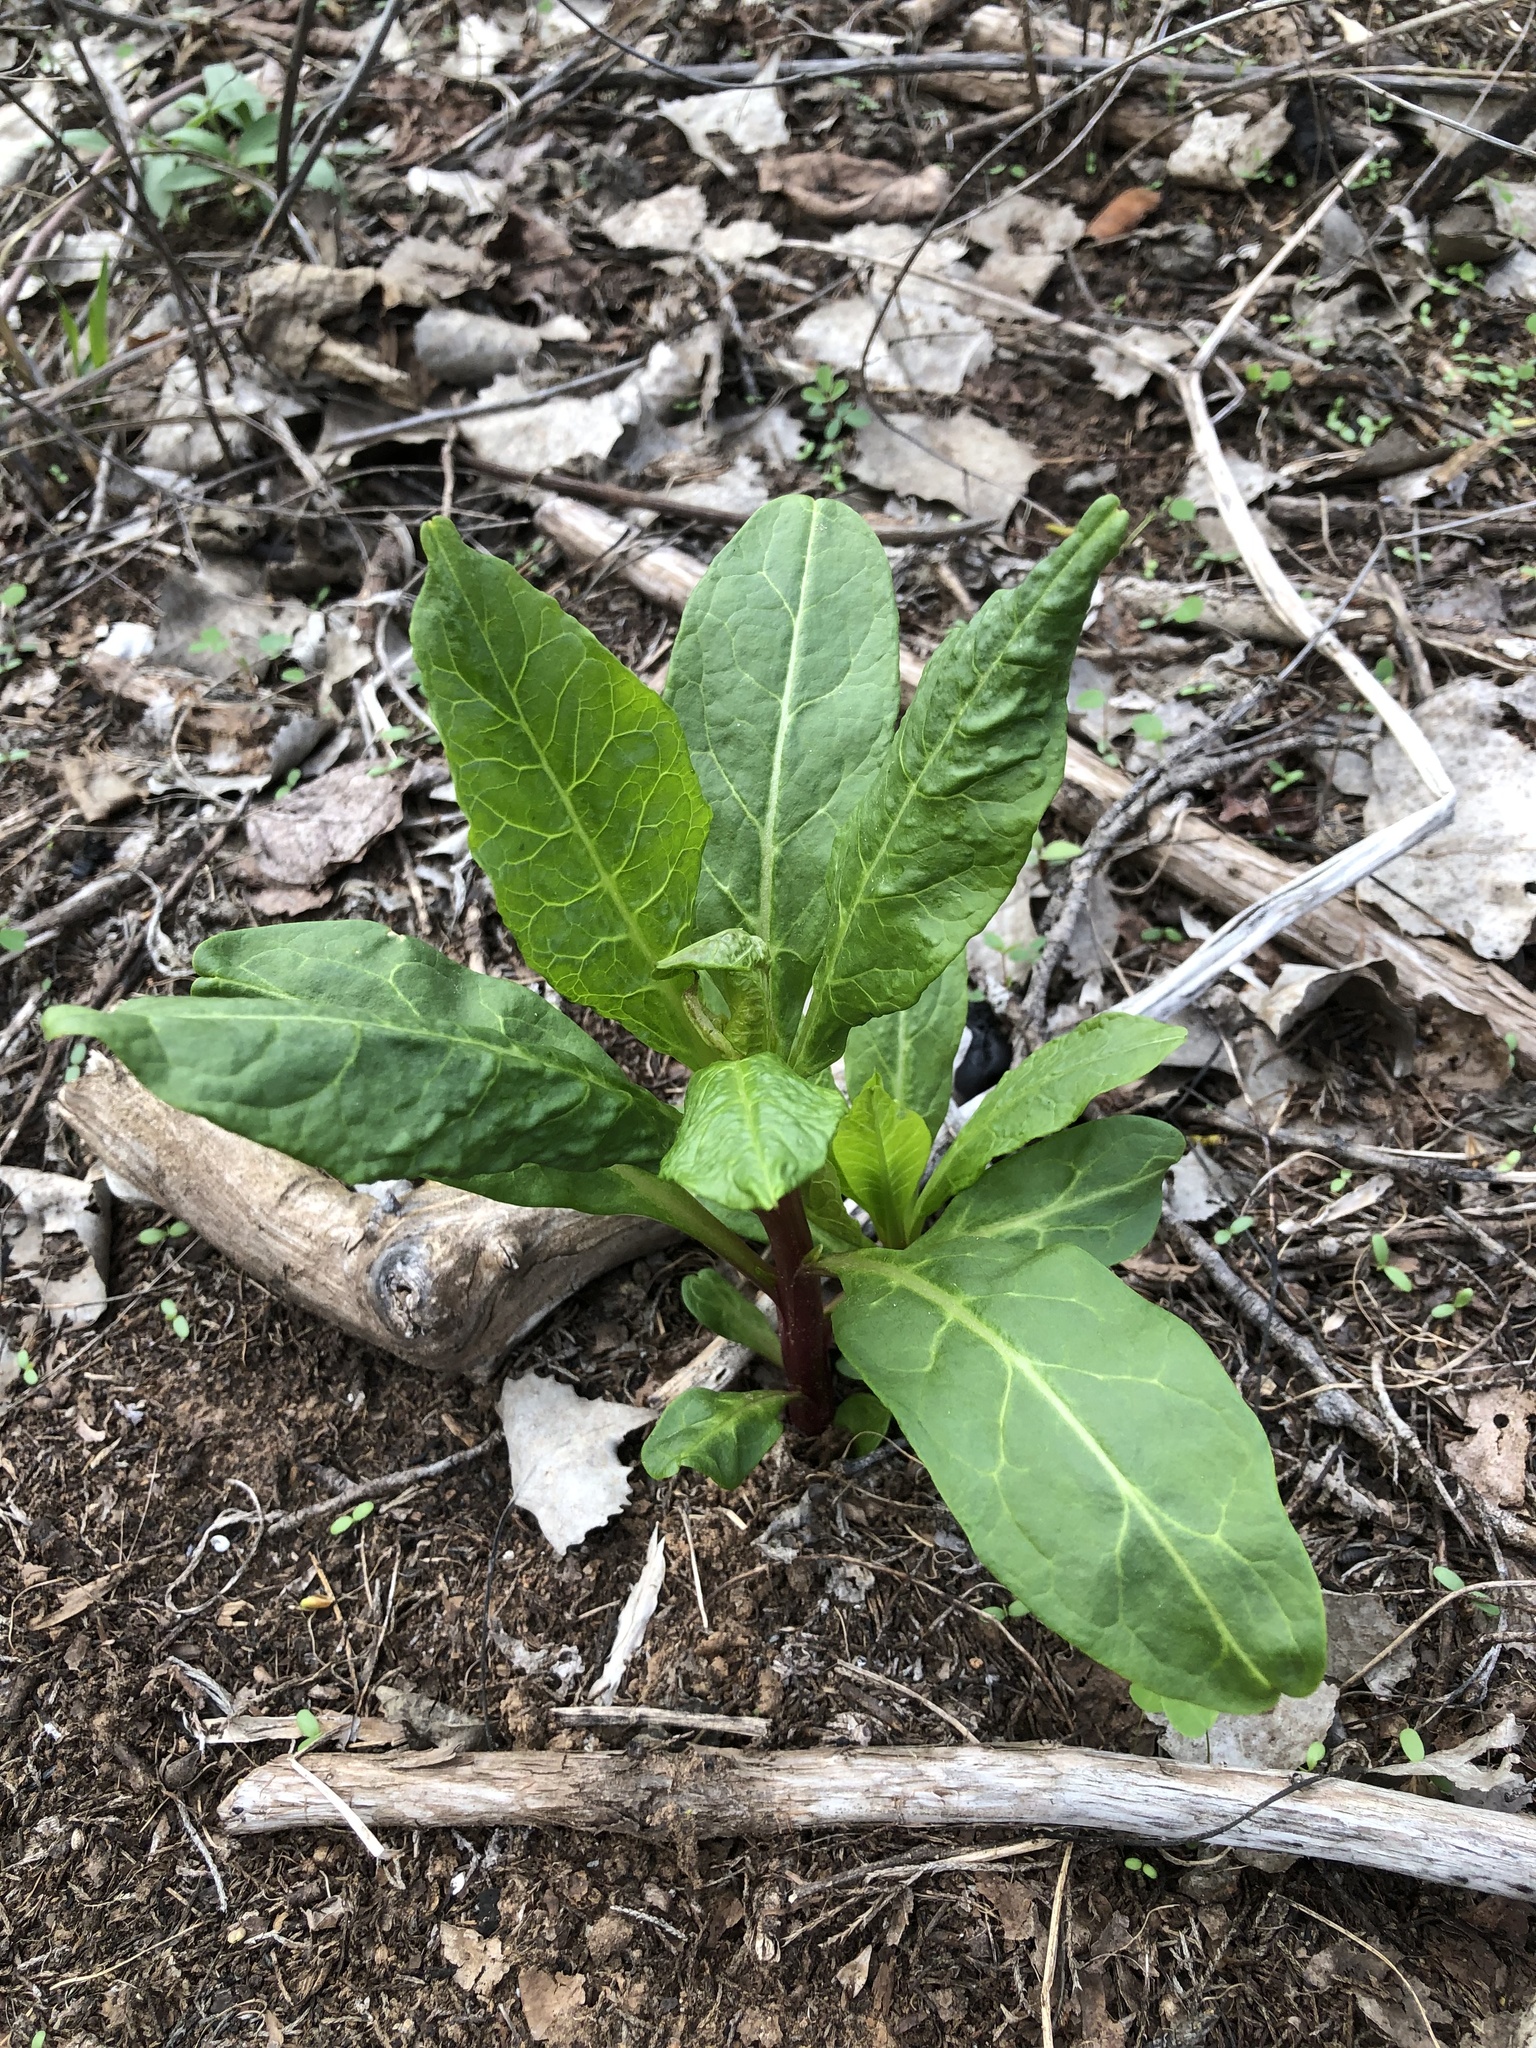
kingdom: Plantae
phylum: Tracheophyta
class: Magnoliopsida
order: Caryophyllales
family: Phytolaccaceae
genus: Phytolacca
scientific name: Phytolacca americana
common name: American pokeweed
